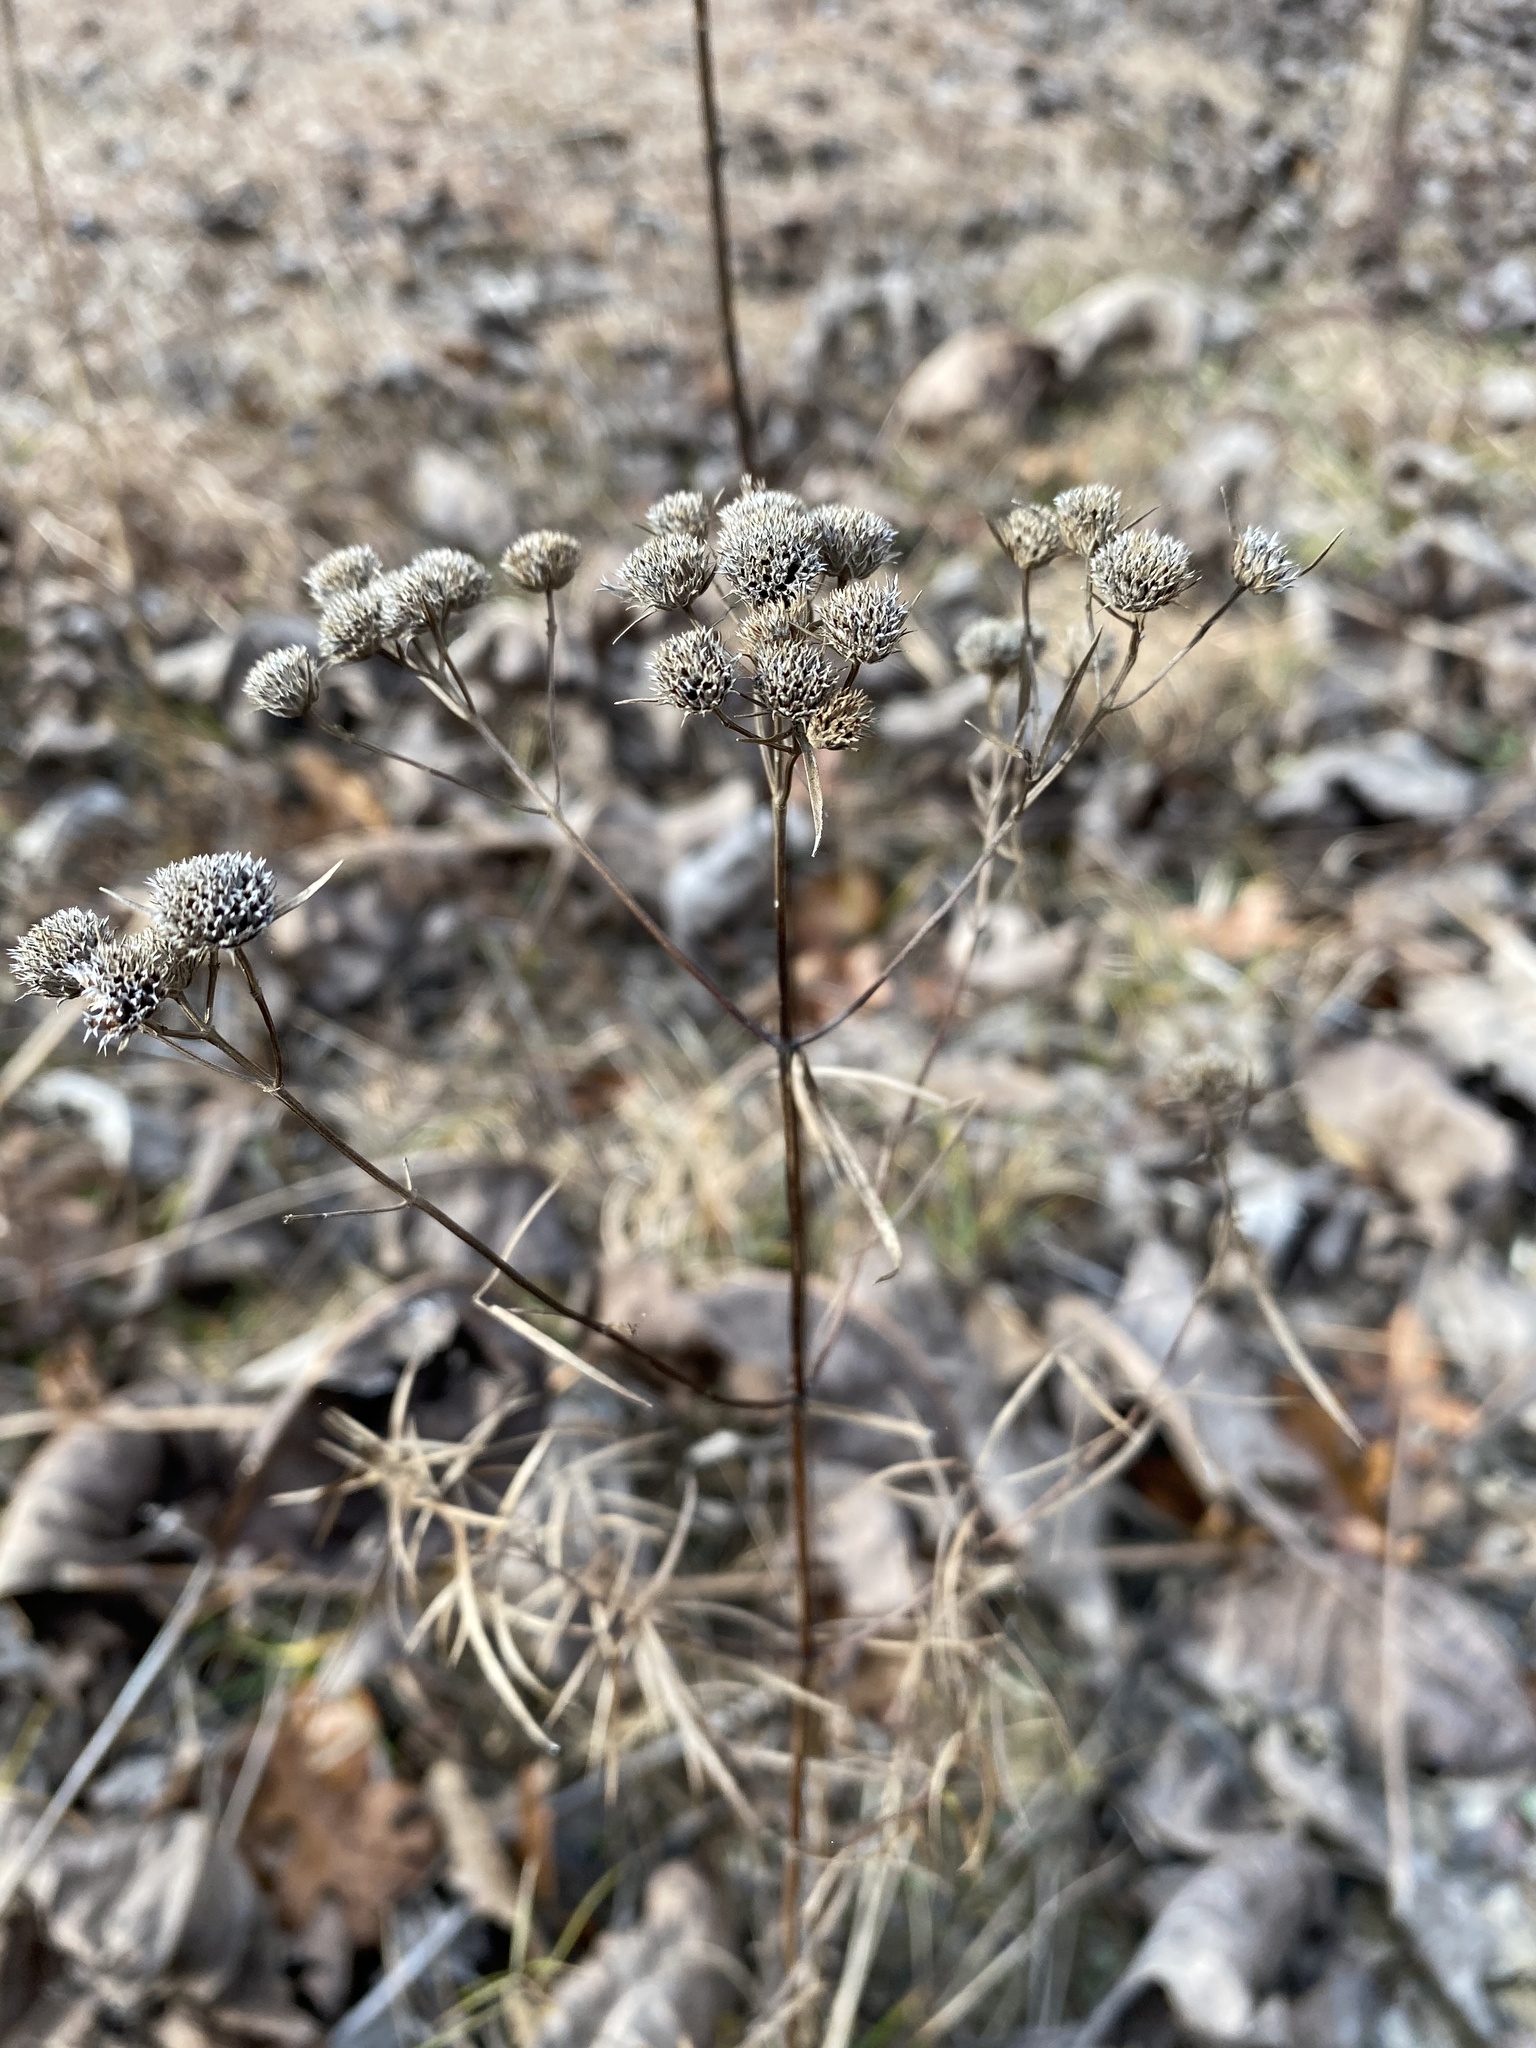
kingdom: Plantae
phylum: Tracheophyta
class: Magnoliopsida
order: Lamiales
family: Lamiaceae
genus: Pycnanthemum
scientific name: Pycnanthemum tenuifolium
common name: Narrow-leaf mountain-mint
